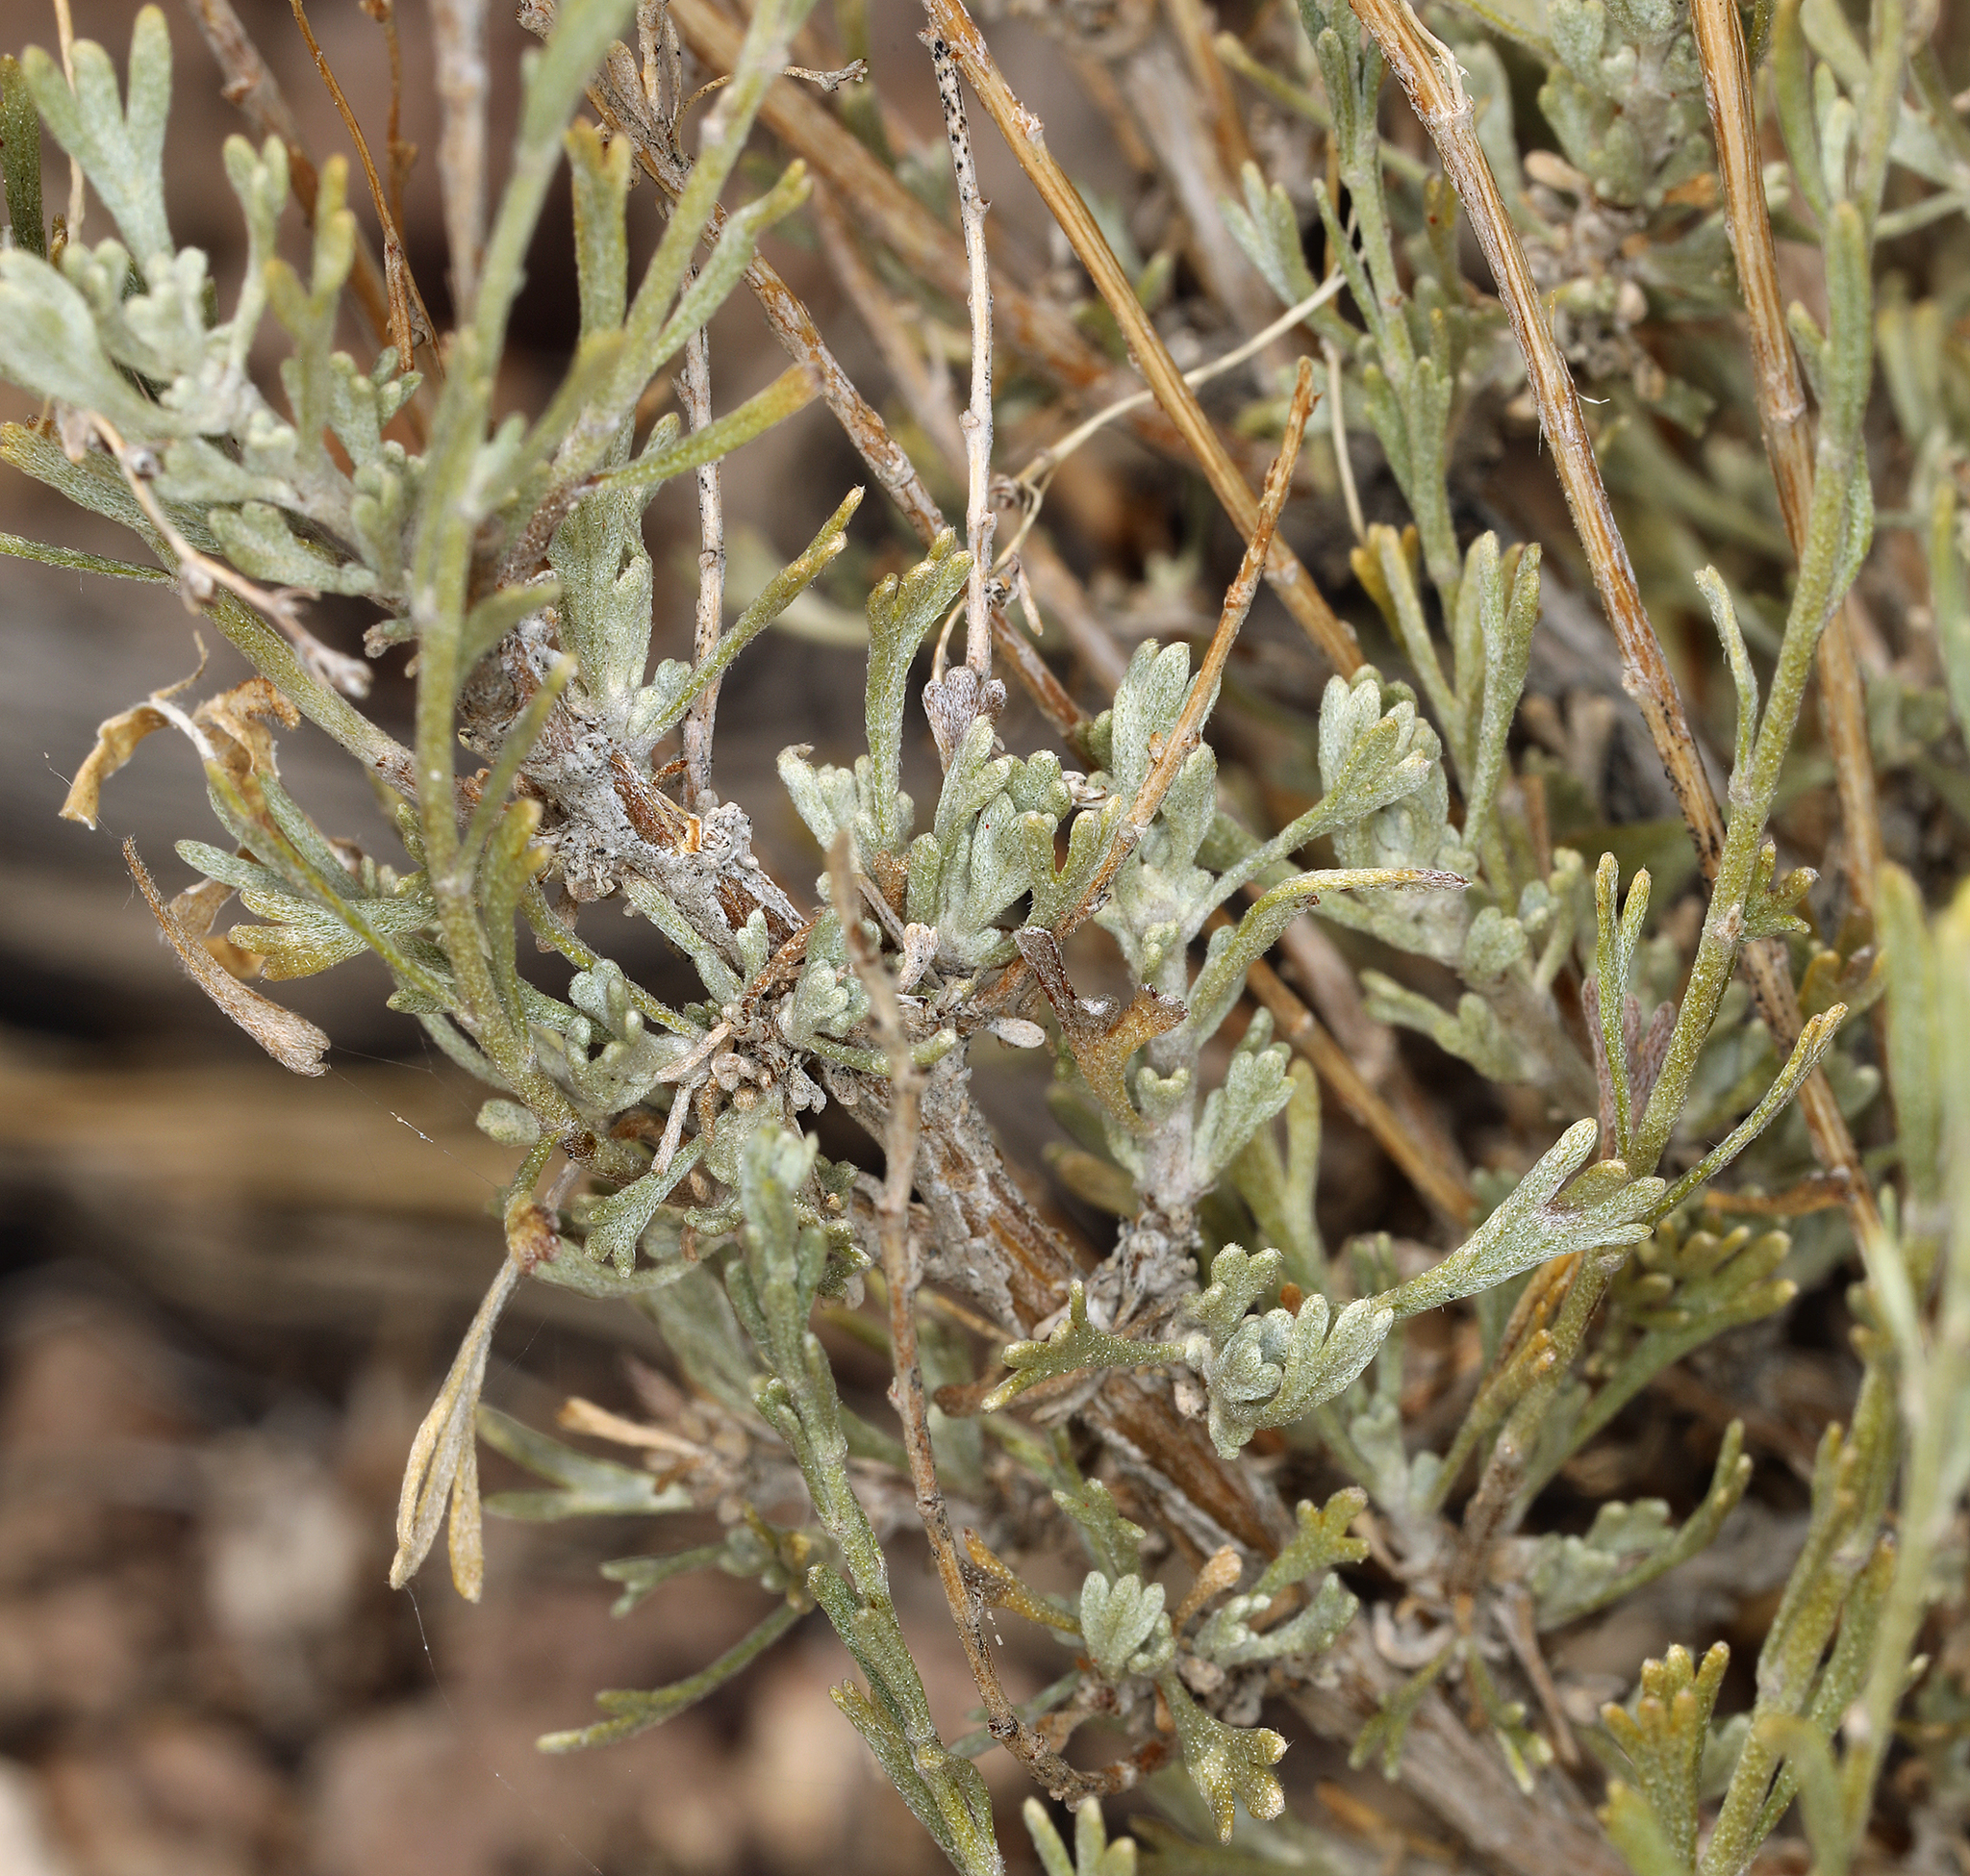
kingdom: Plantae
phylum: Tracheophyta
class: Magnoliopsida
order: Asterales
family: Asteraceae
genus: Artemisia
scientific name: Artemisia nova
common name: Black-sage
